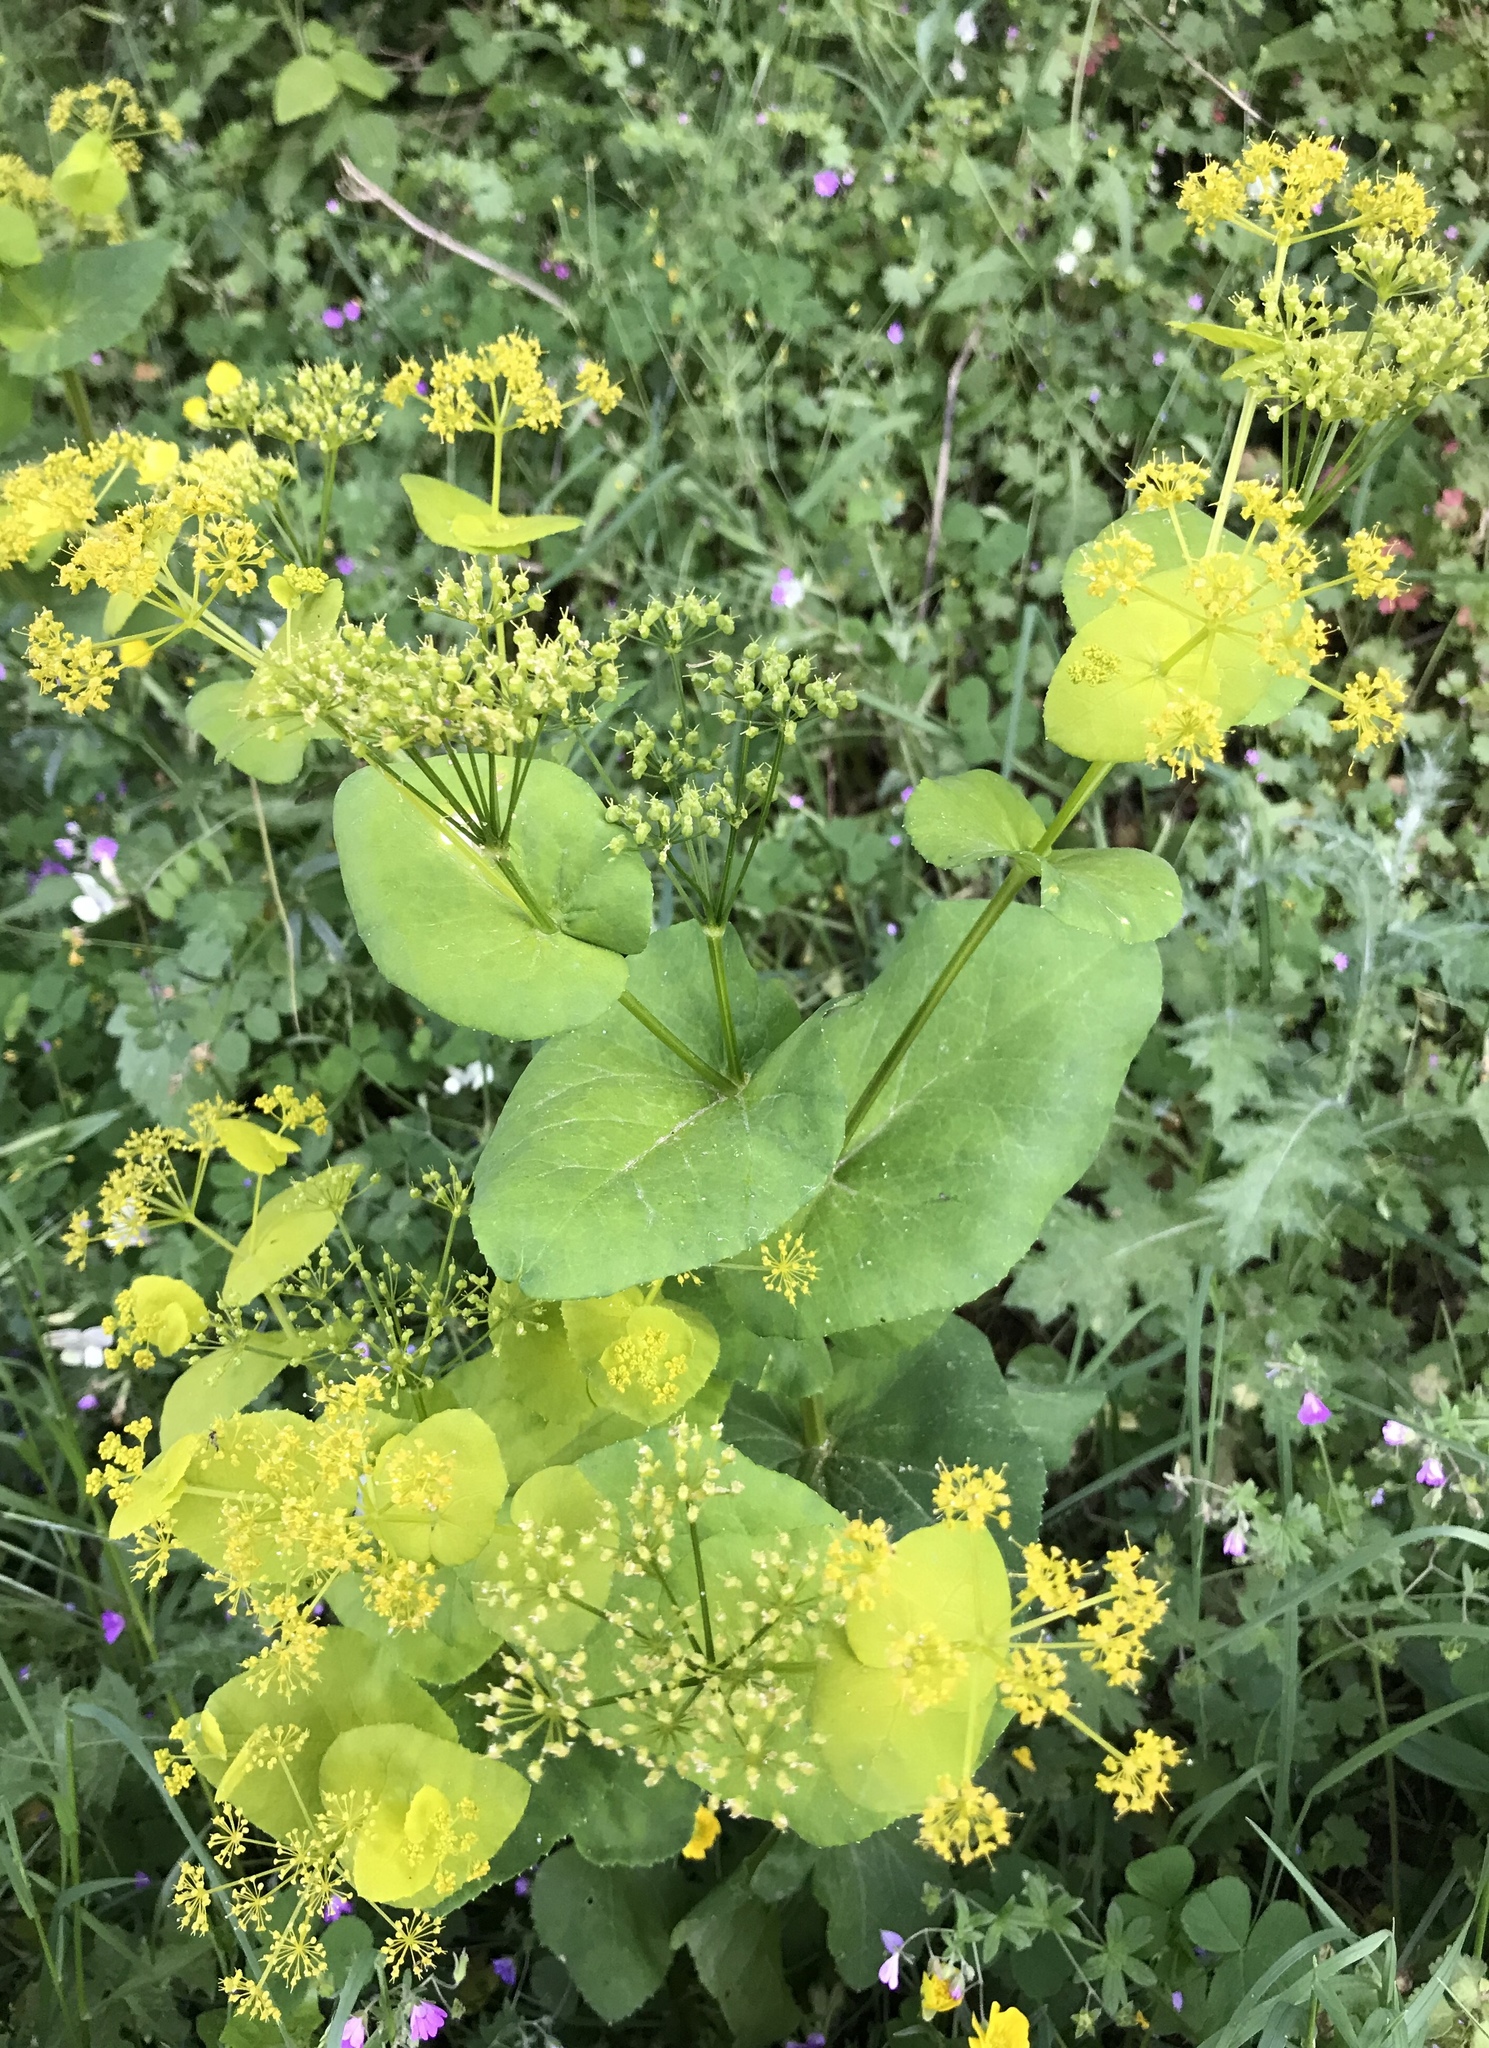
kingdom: Plantae
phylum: Tracheophyta
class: Magnoliopsida
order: Apiales
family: Apiaceae
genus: Smyrnium
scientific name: Smyrnium perfoliatum
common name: Perfoliate alexanders
